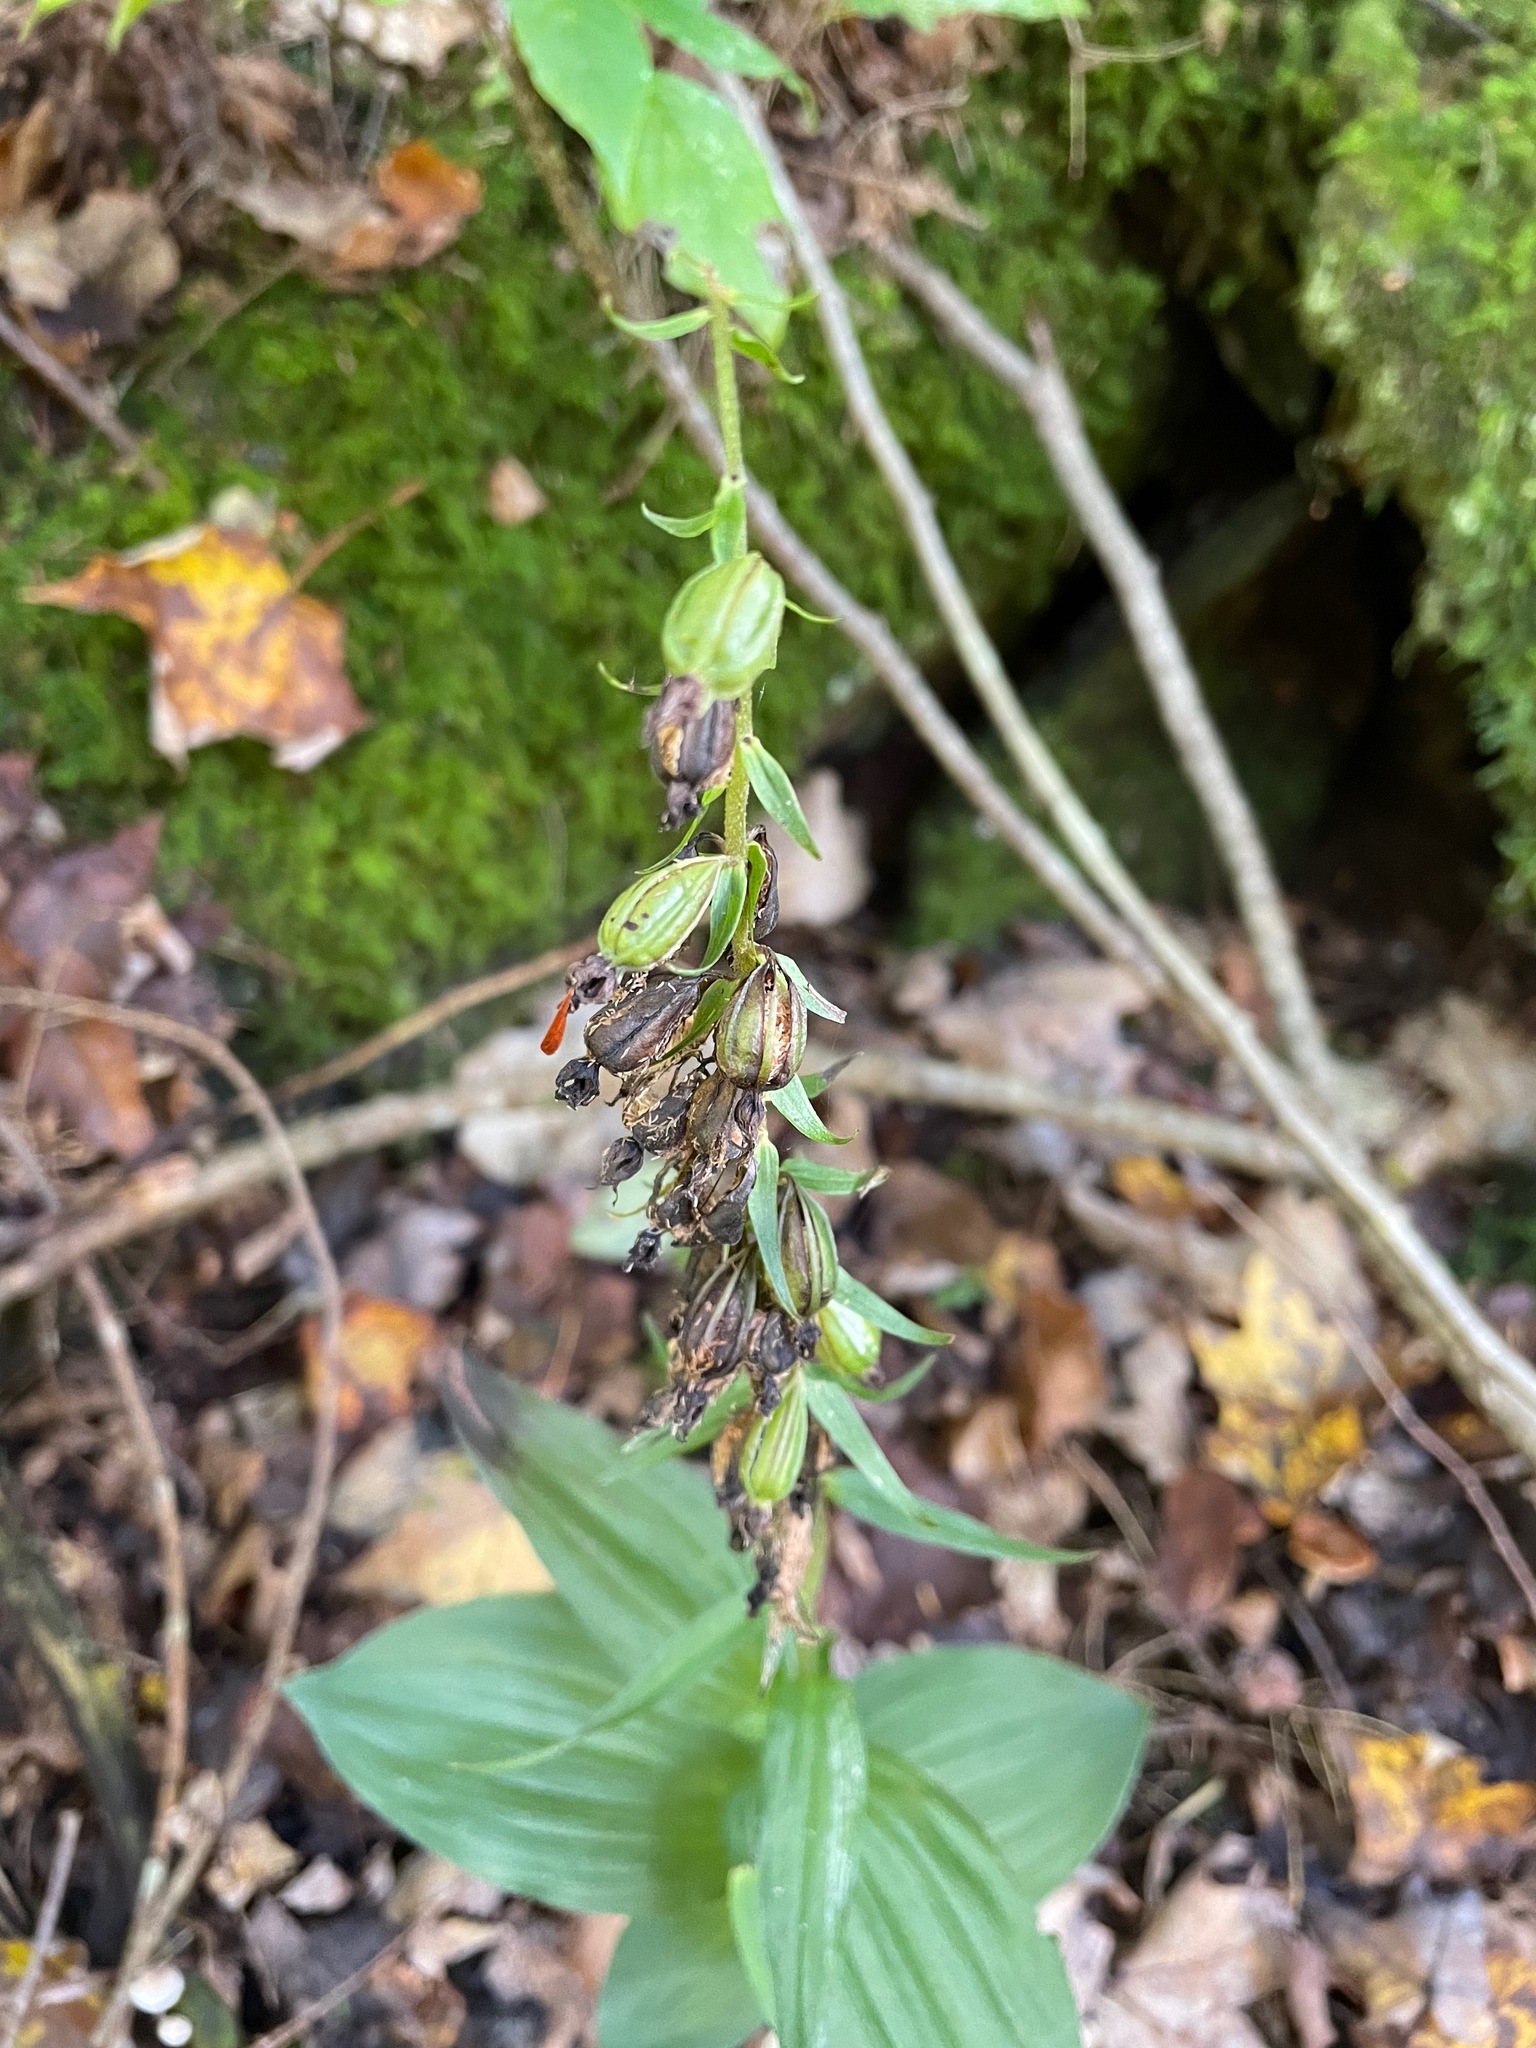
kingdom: Plantae
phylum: Tracheophyta
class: Liliopsida
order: Asparagales
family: Orchidaceae
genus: Epipactis
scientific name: Epipactis helleborine
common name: Broad-leaved helleborine
